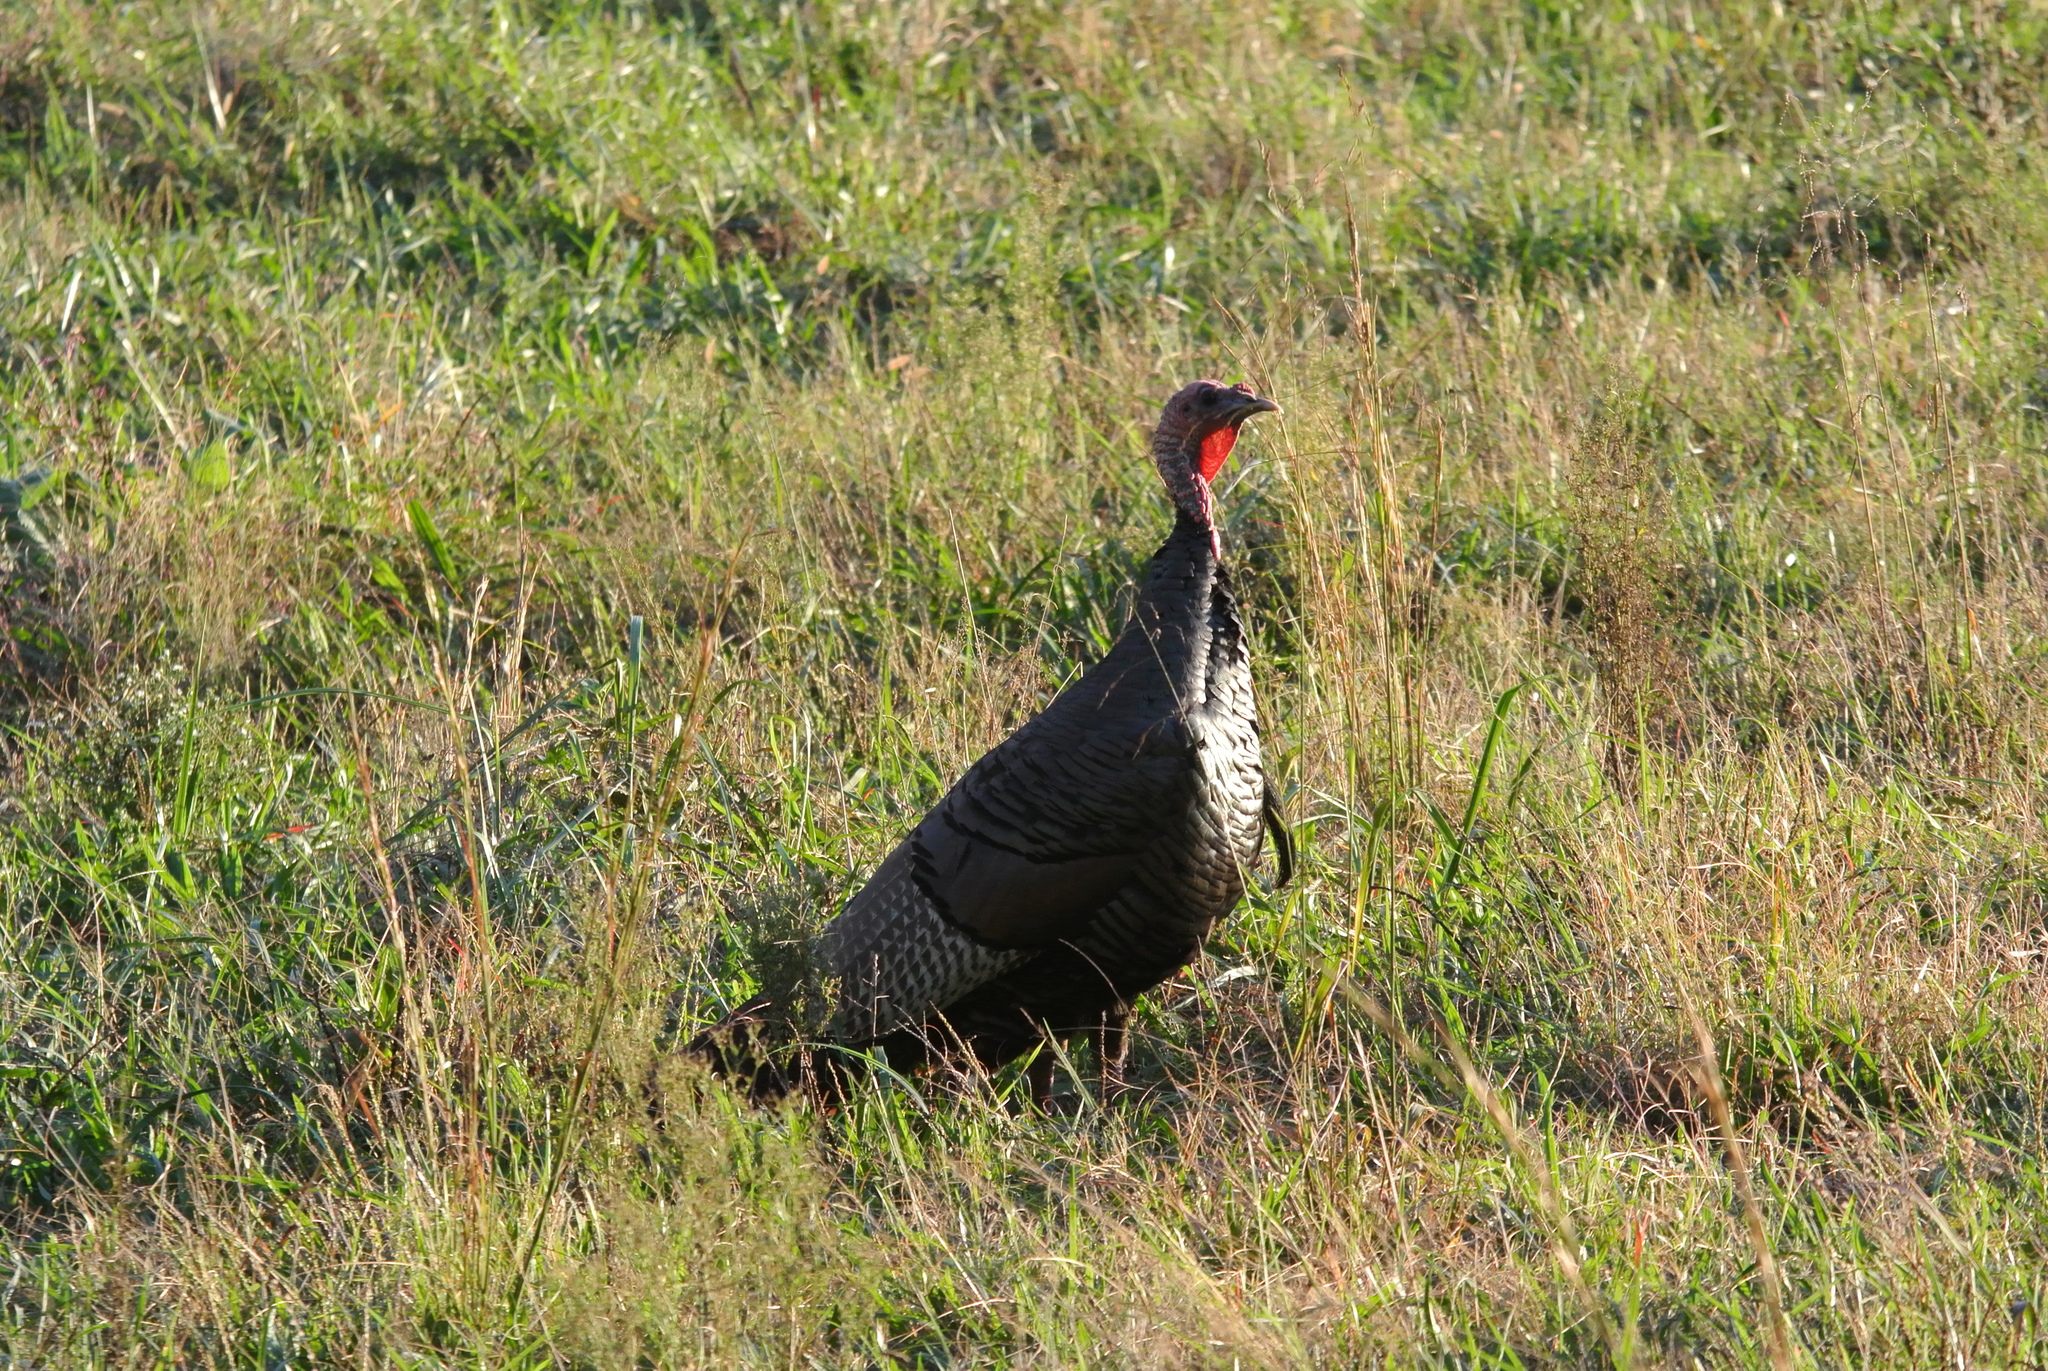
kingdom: Animalia
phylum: Chordata
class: Aves
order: Galliformes
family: Phasianidae
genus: Meleagris
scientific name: Meleagris gallopavo
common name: Wild turkey
